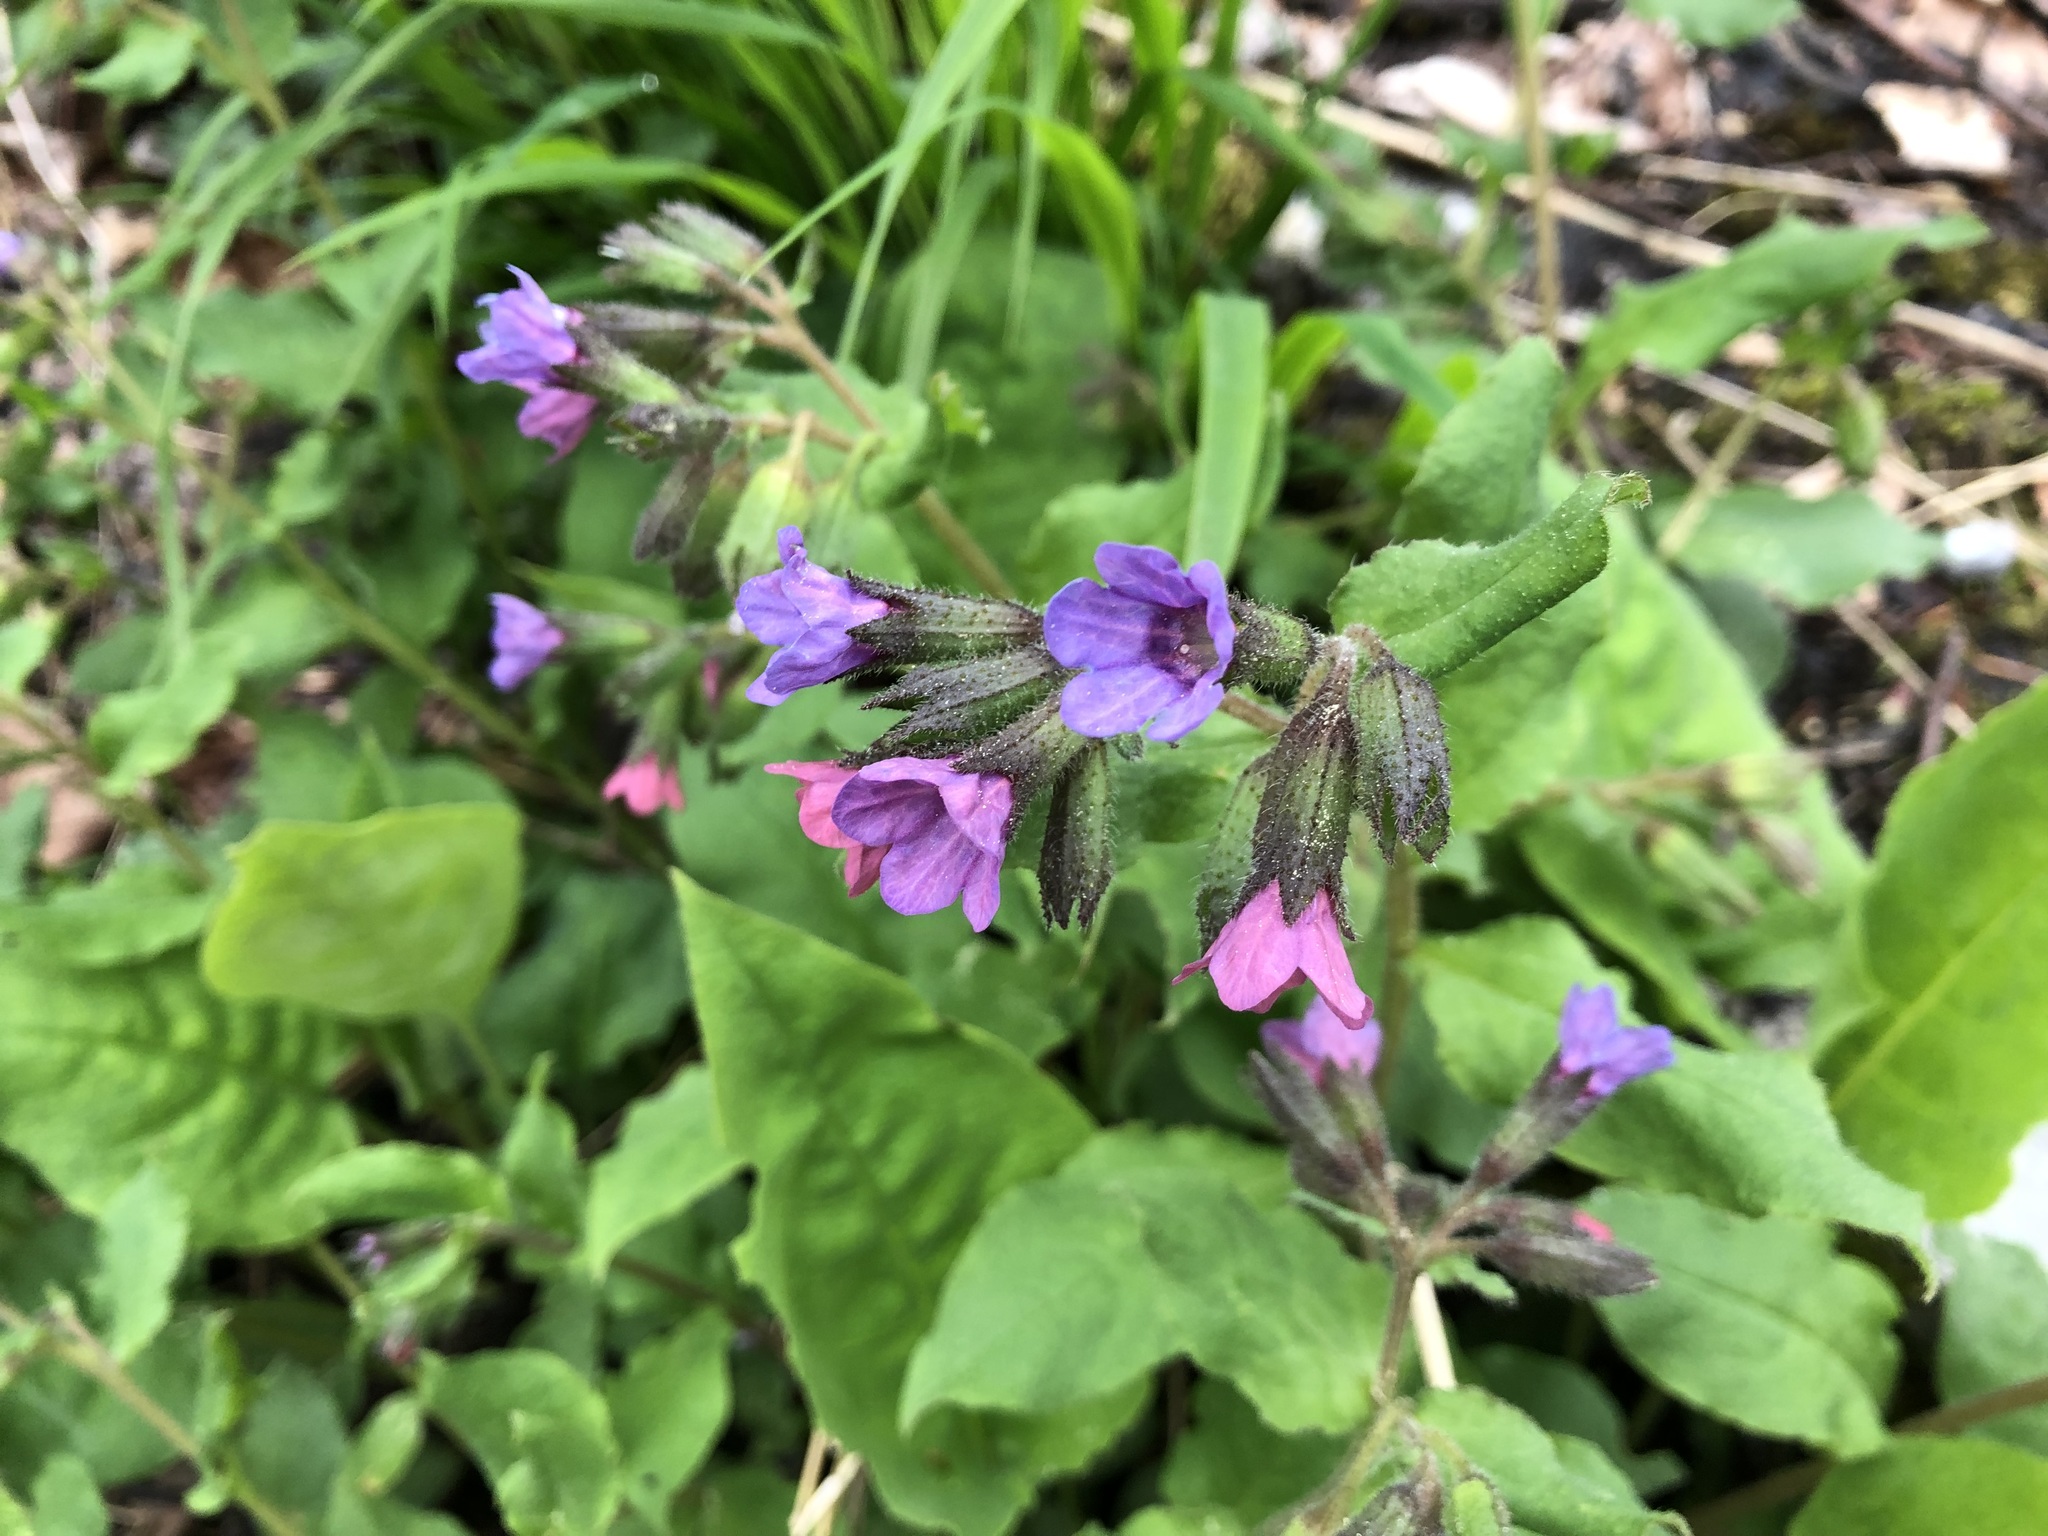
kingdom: Plantae
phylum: Tracheophyta
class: Magnoliopsida
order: Boraginales
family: Boraginaceae
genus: Pulmonaria
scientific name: Pulmonaria obscura
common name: Suffolk lungwort
